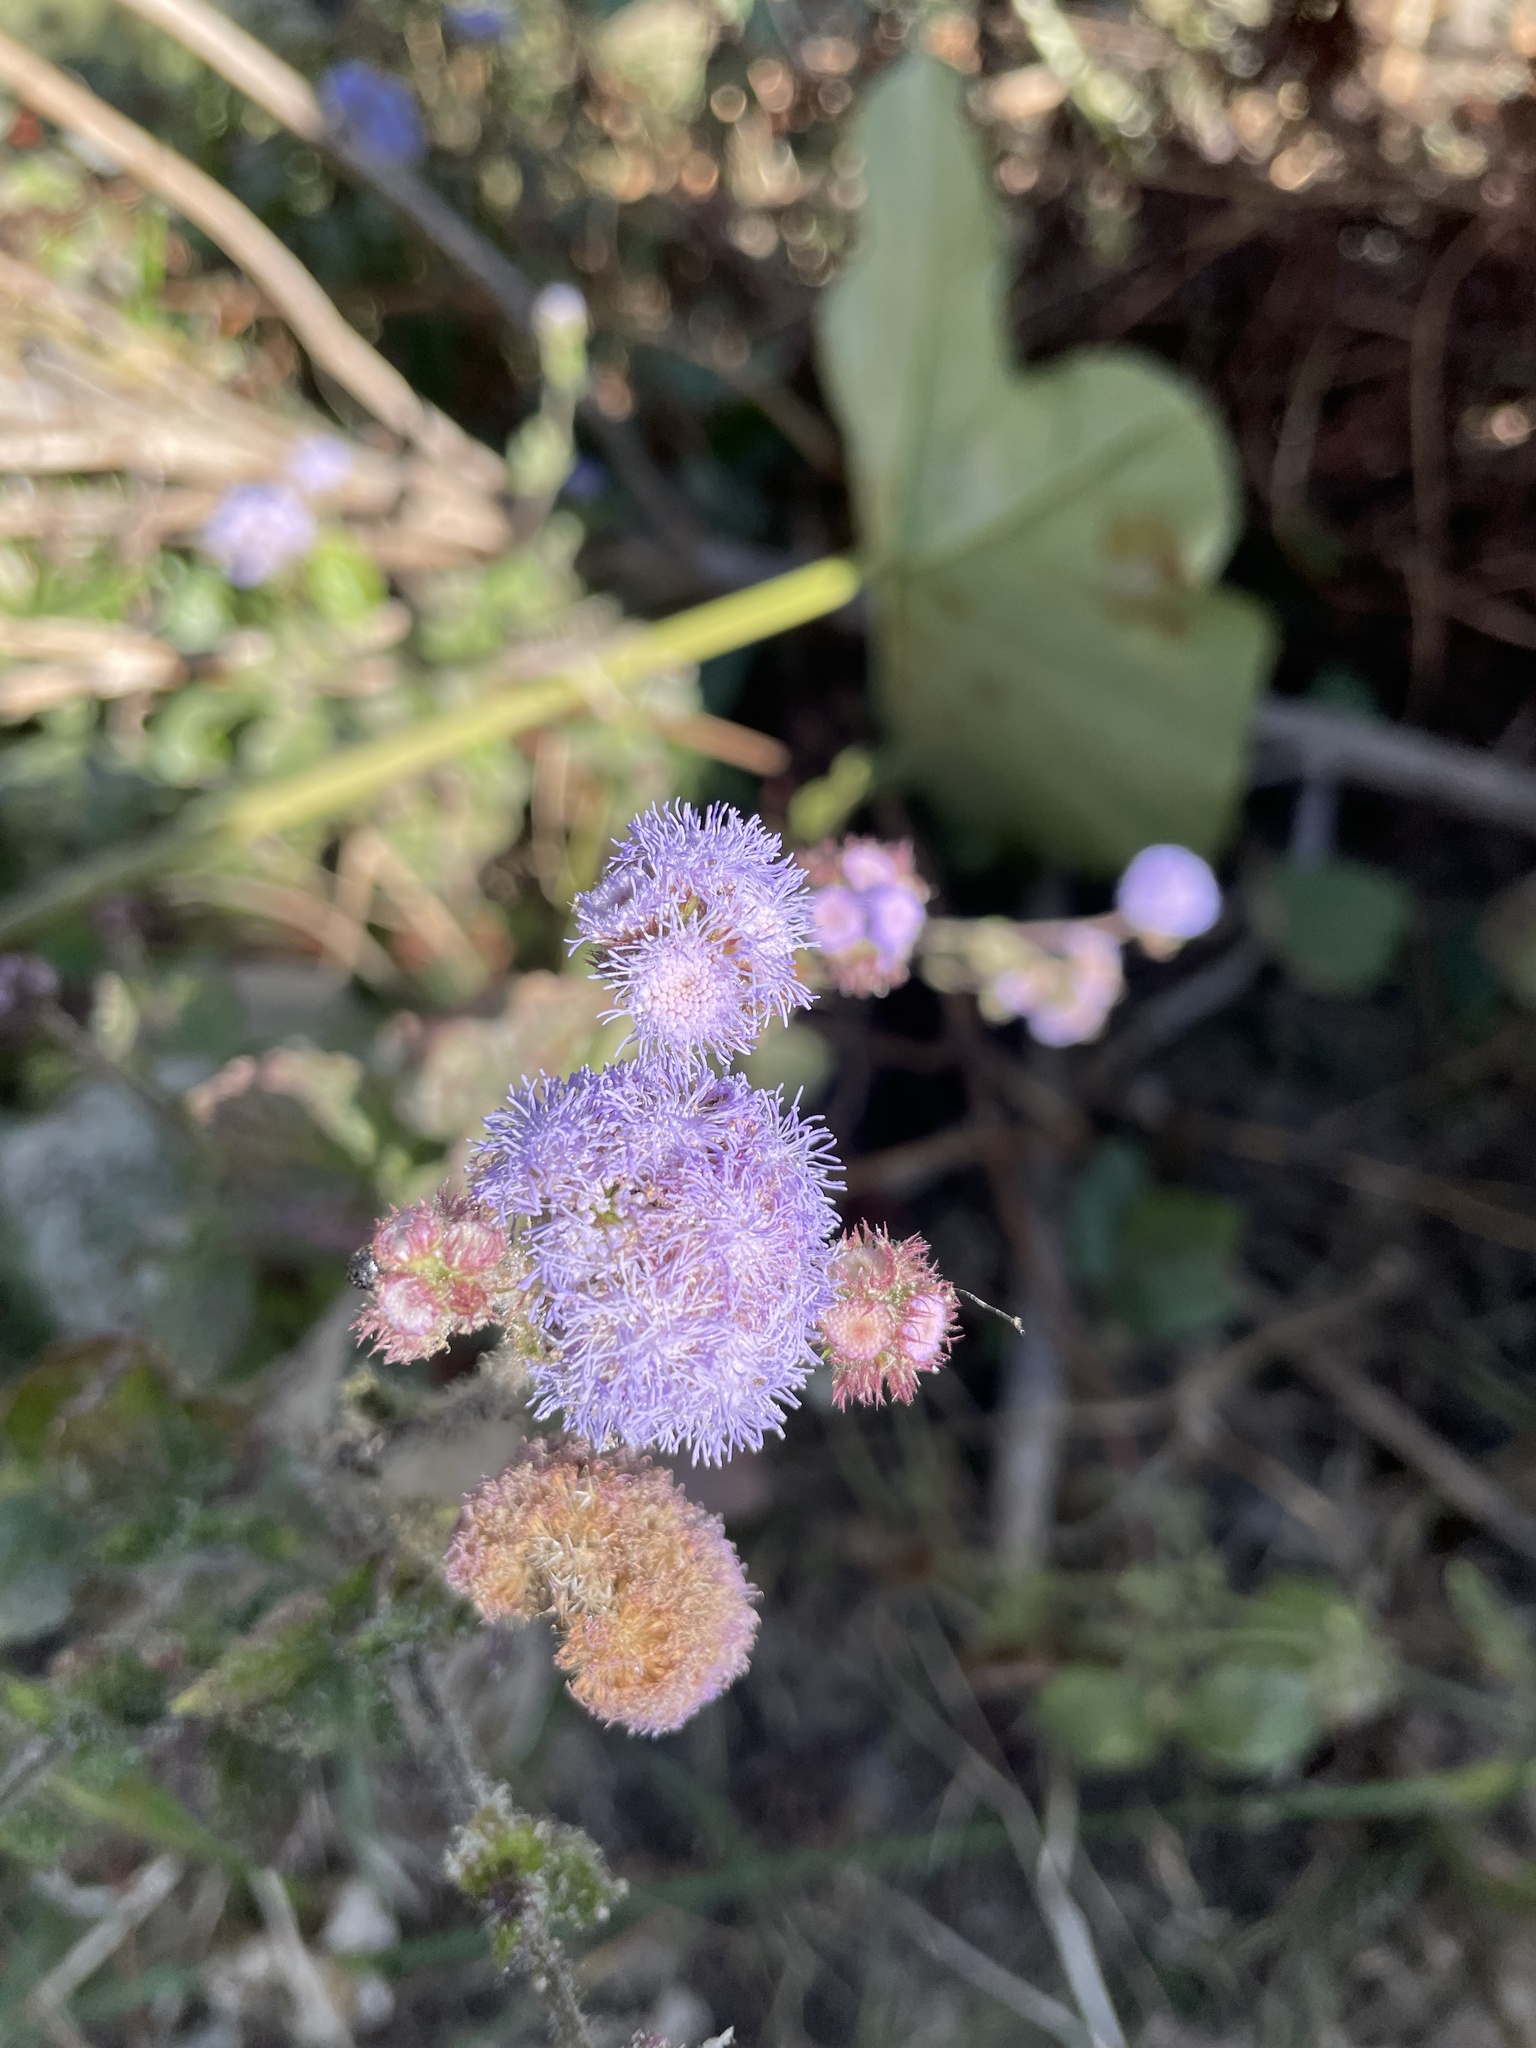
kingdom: Plantae
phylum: Tracheophyta
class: Magnoliopsida
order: Asterales
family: Asteraceae
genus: Ageratum
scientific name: Ageratum houstonianum
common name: Bluemink
